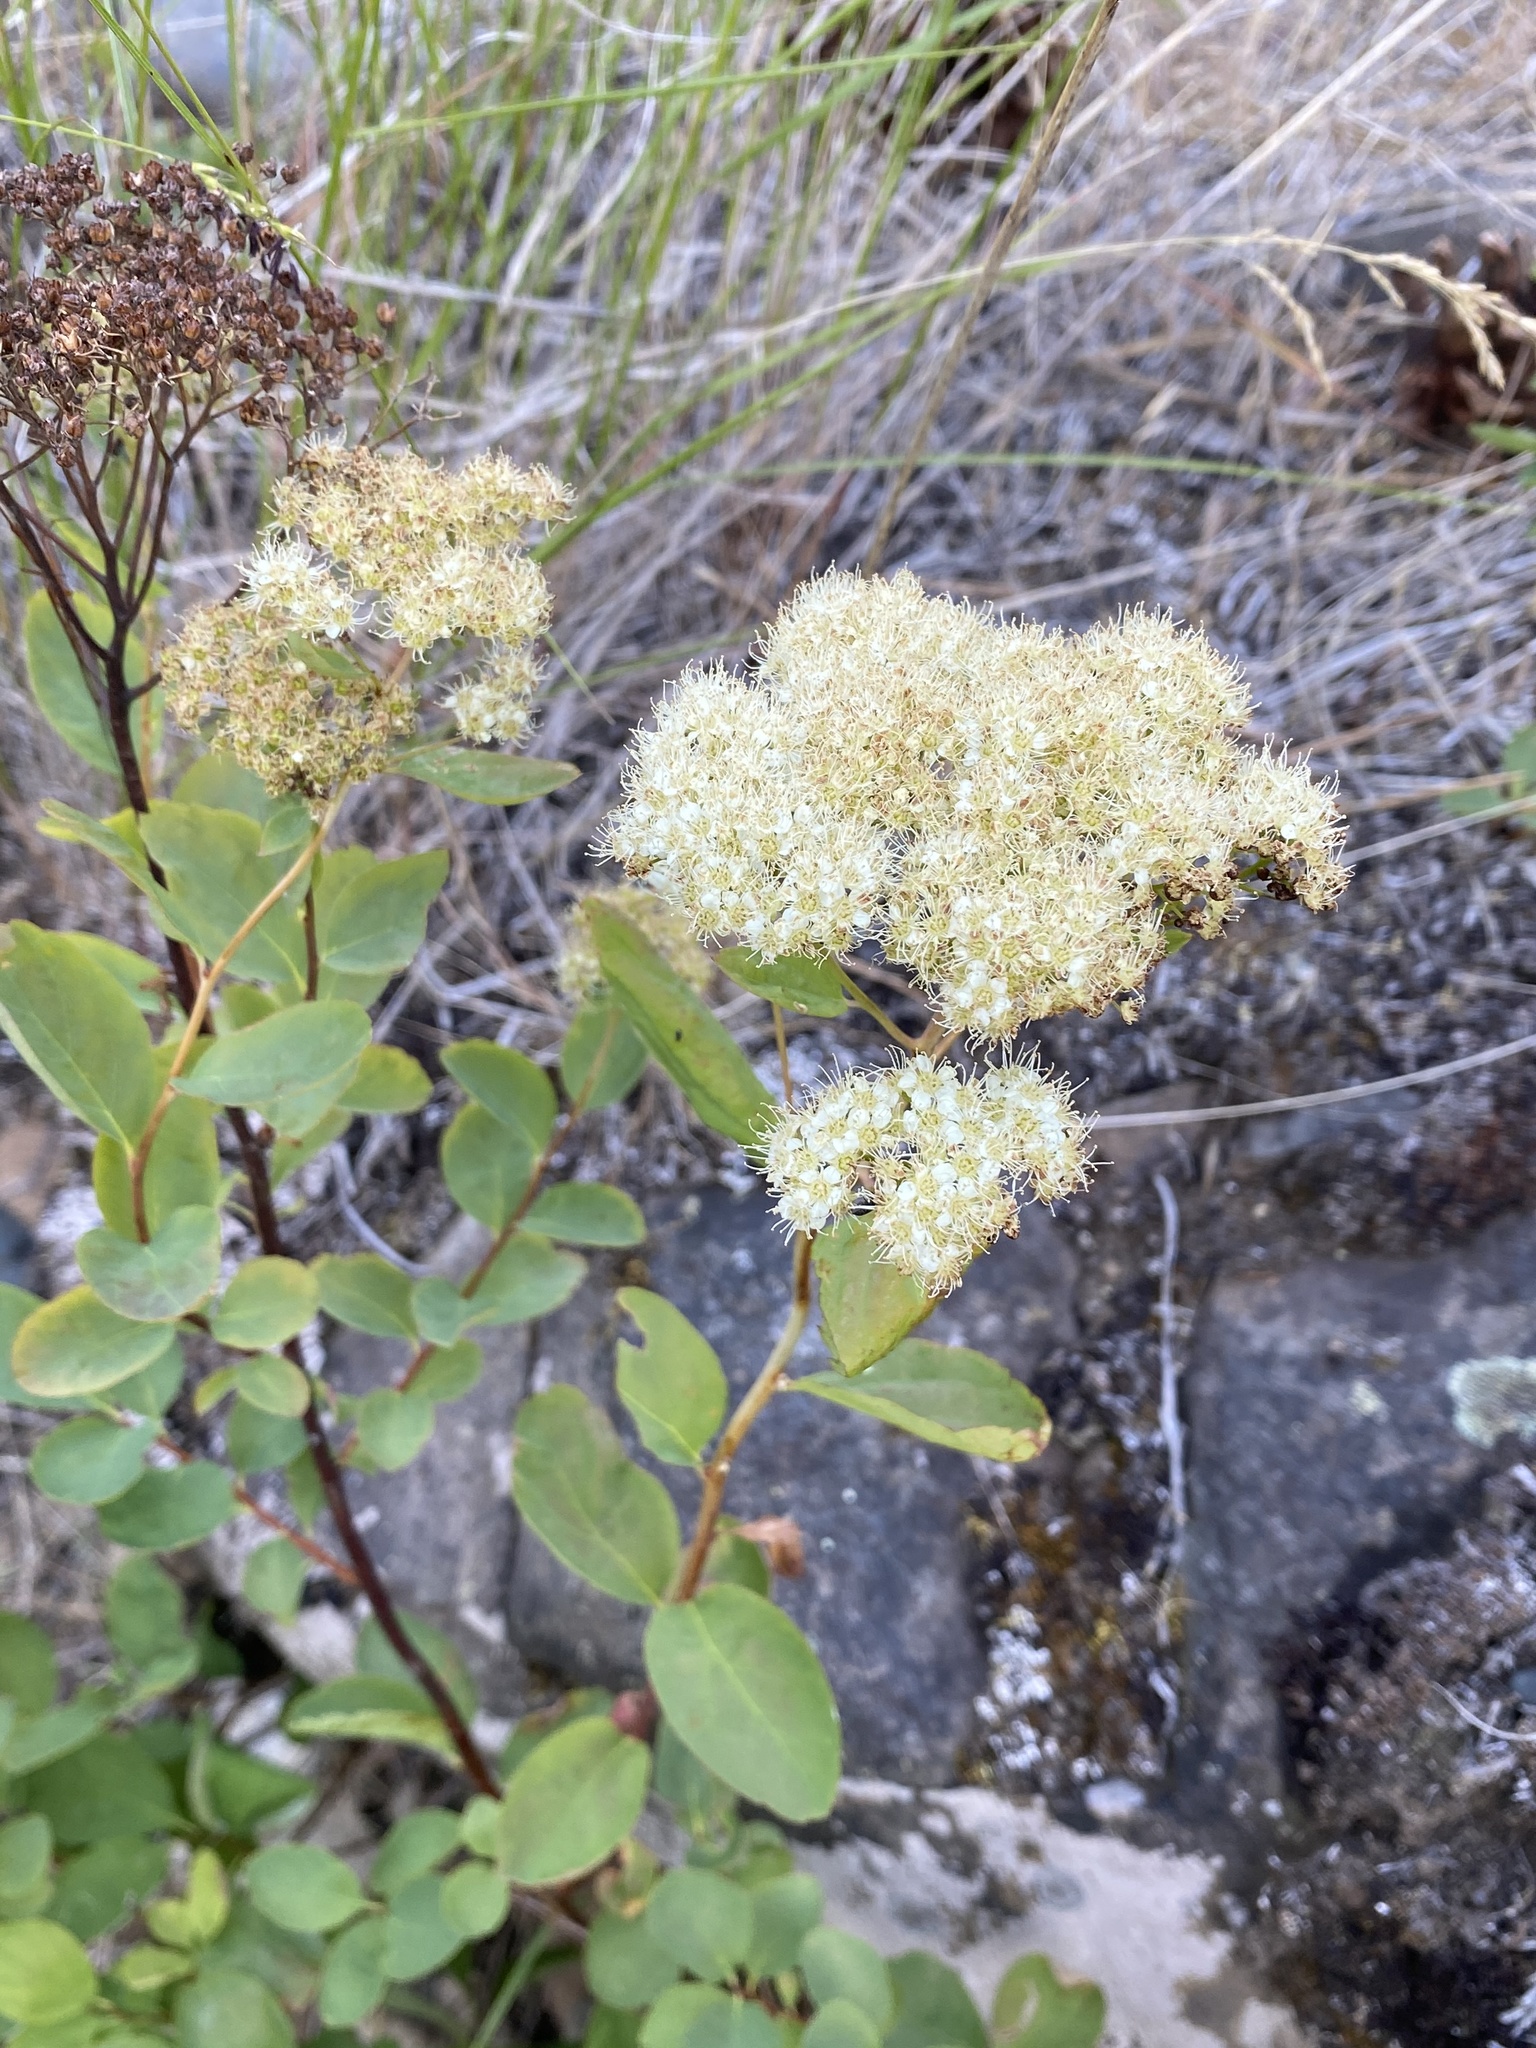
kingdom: Plantae
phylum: Tracheophyta
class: Magnoliopsida
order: Rosales
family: Rosaceae
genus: Spiraea
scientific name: Spiraea lucida
